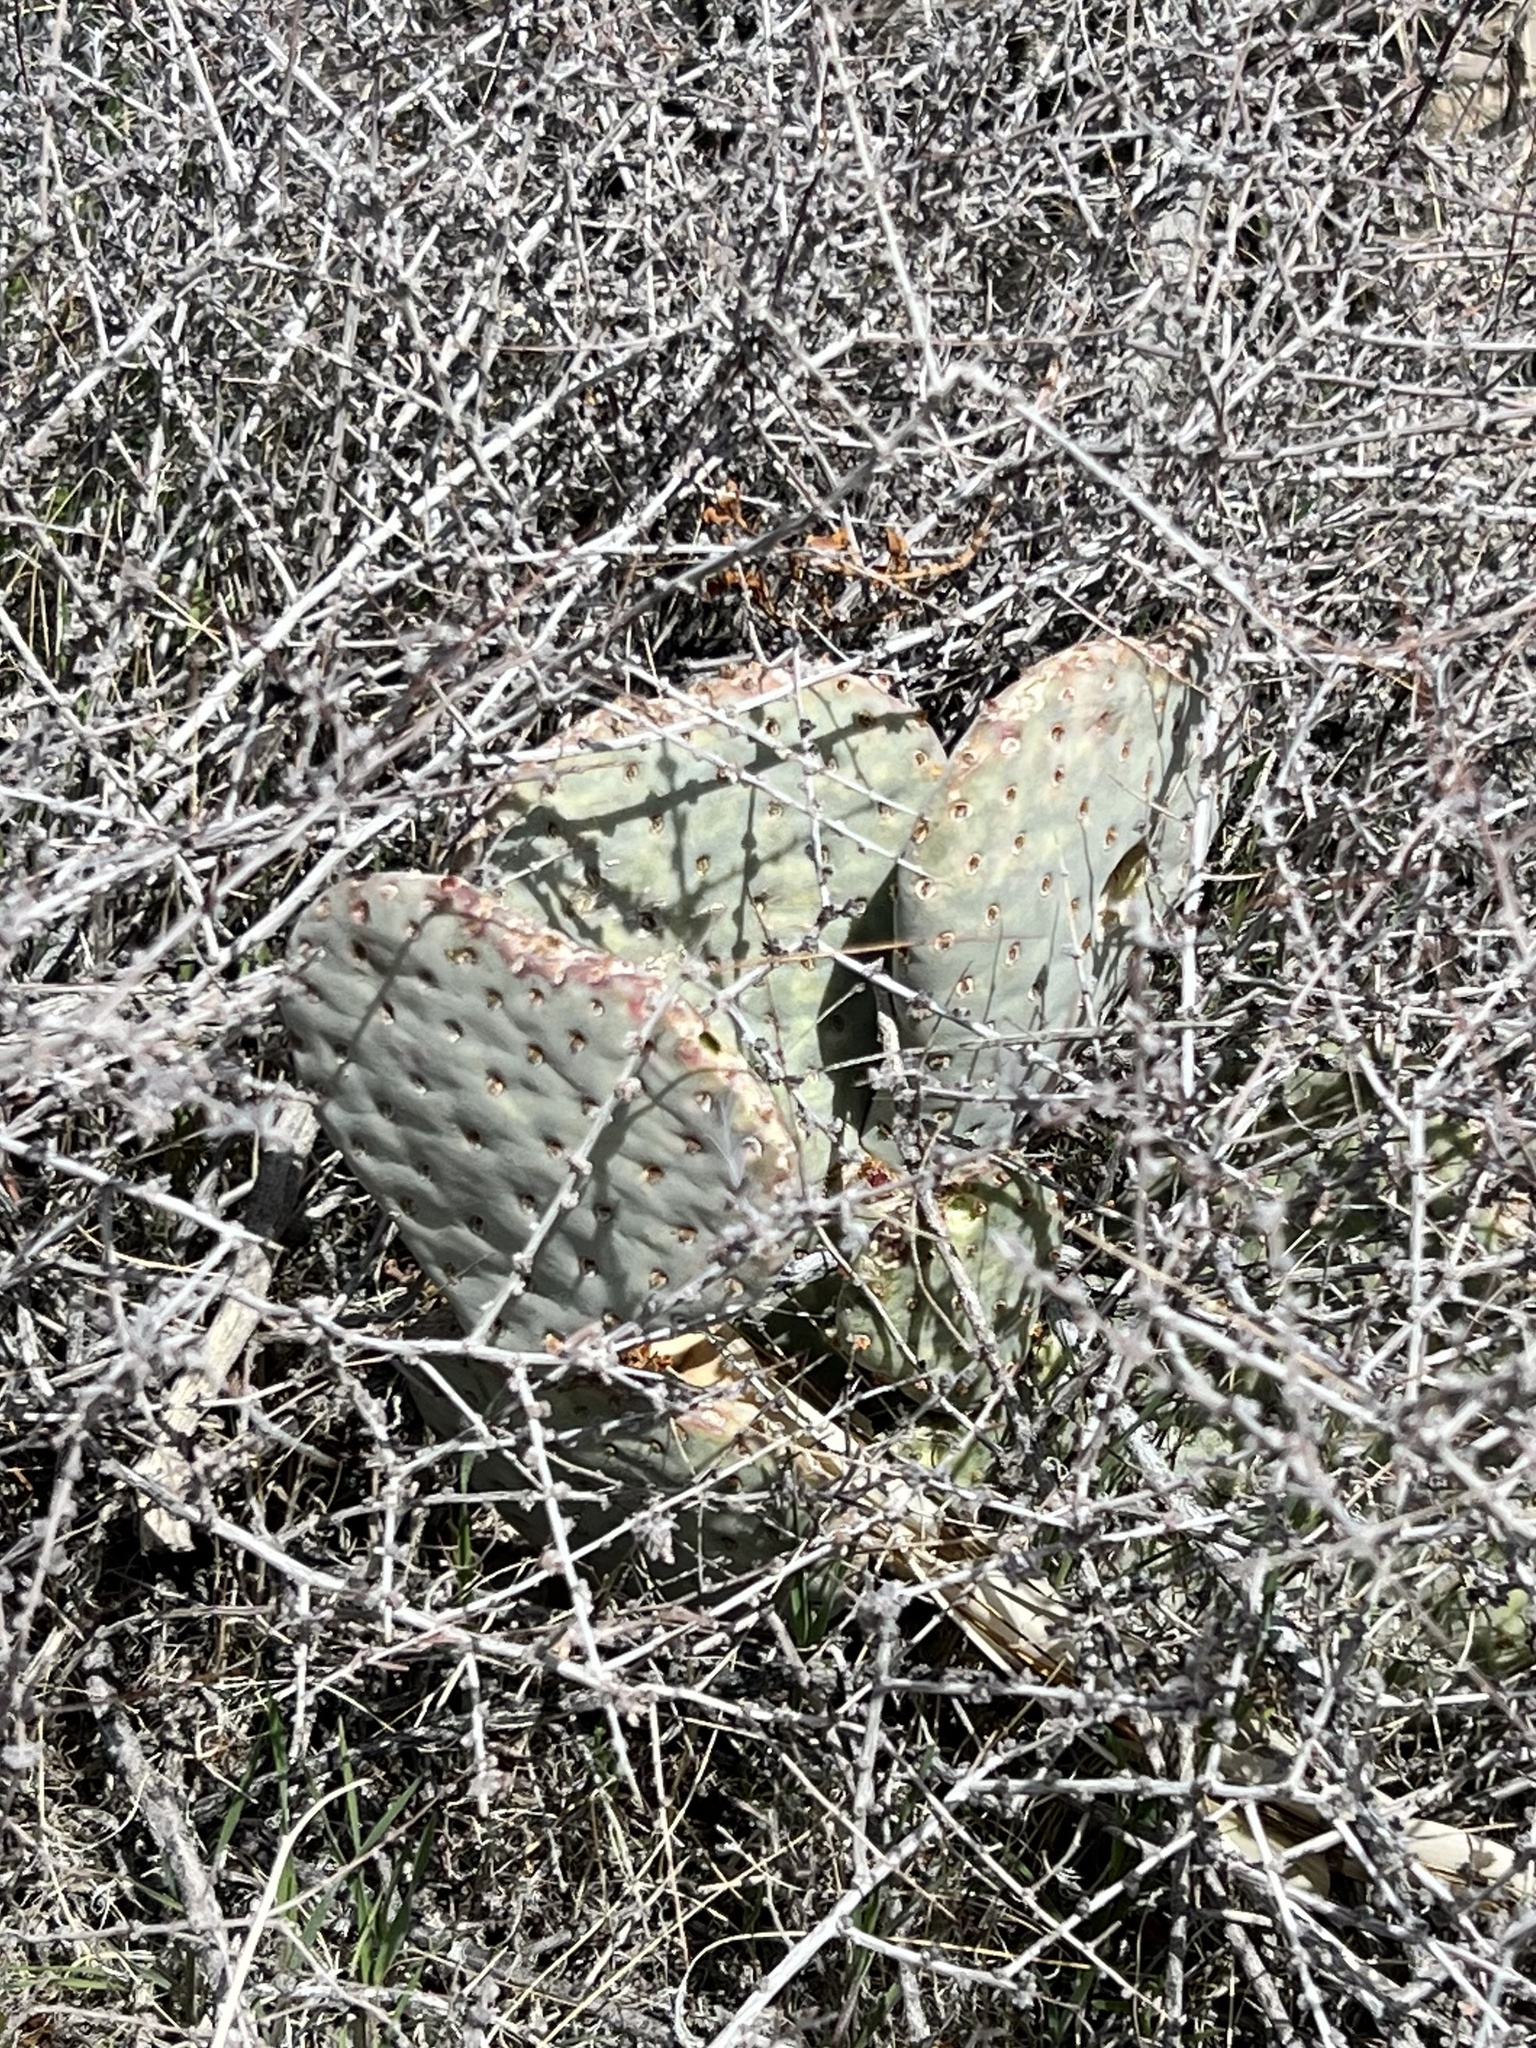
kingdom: Plantae
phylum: Tracheophyta
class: Magnoliopsida
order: Caryophyllales
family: Cactaceae
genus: Opuntia
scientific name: Opuntia basilaris
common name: Beavertail prickly-pear
